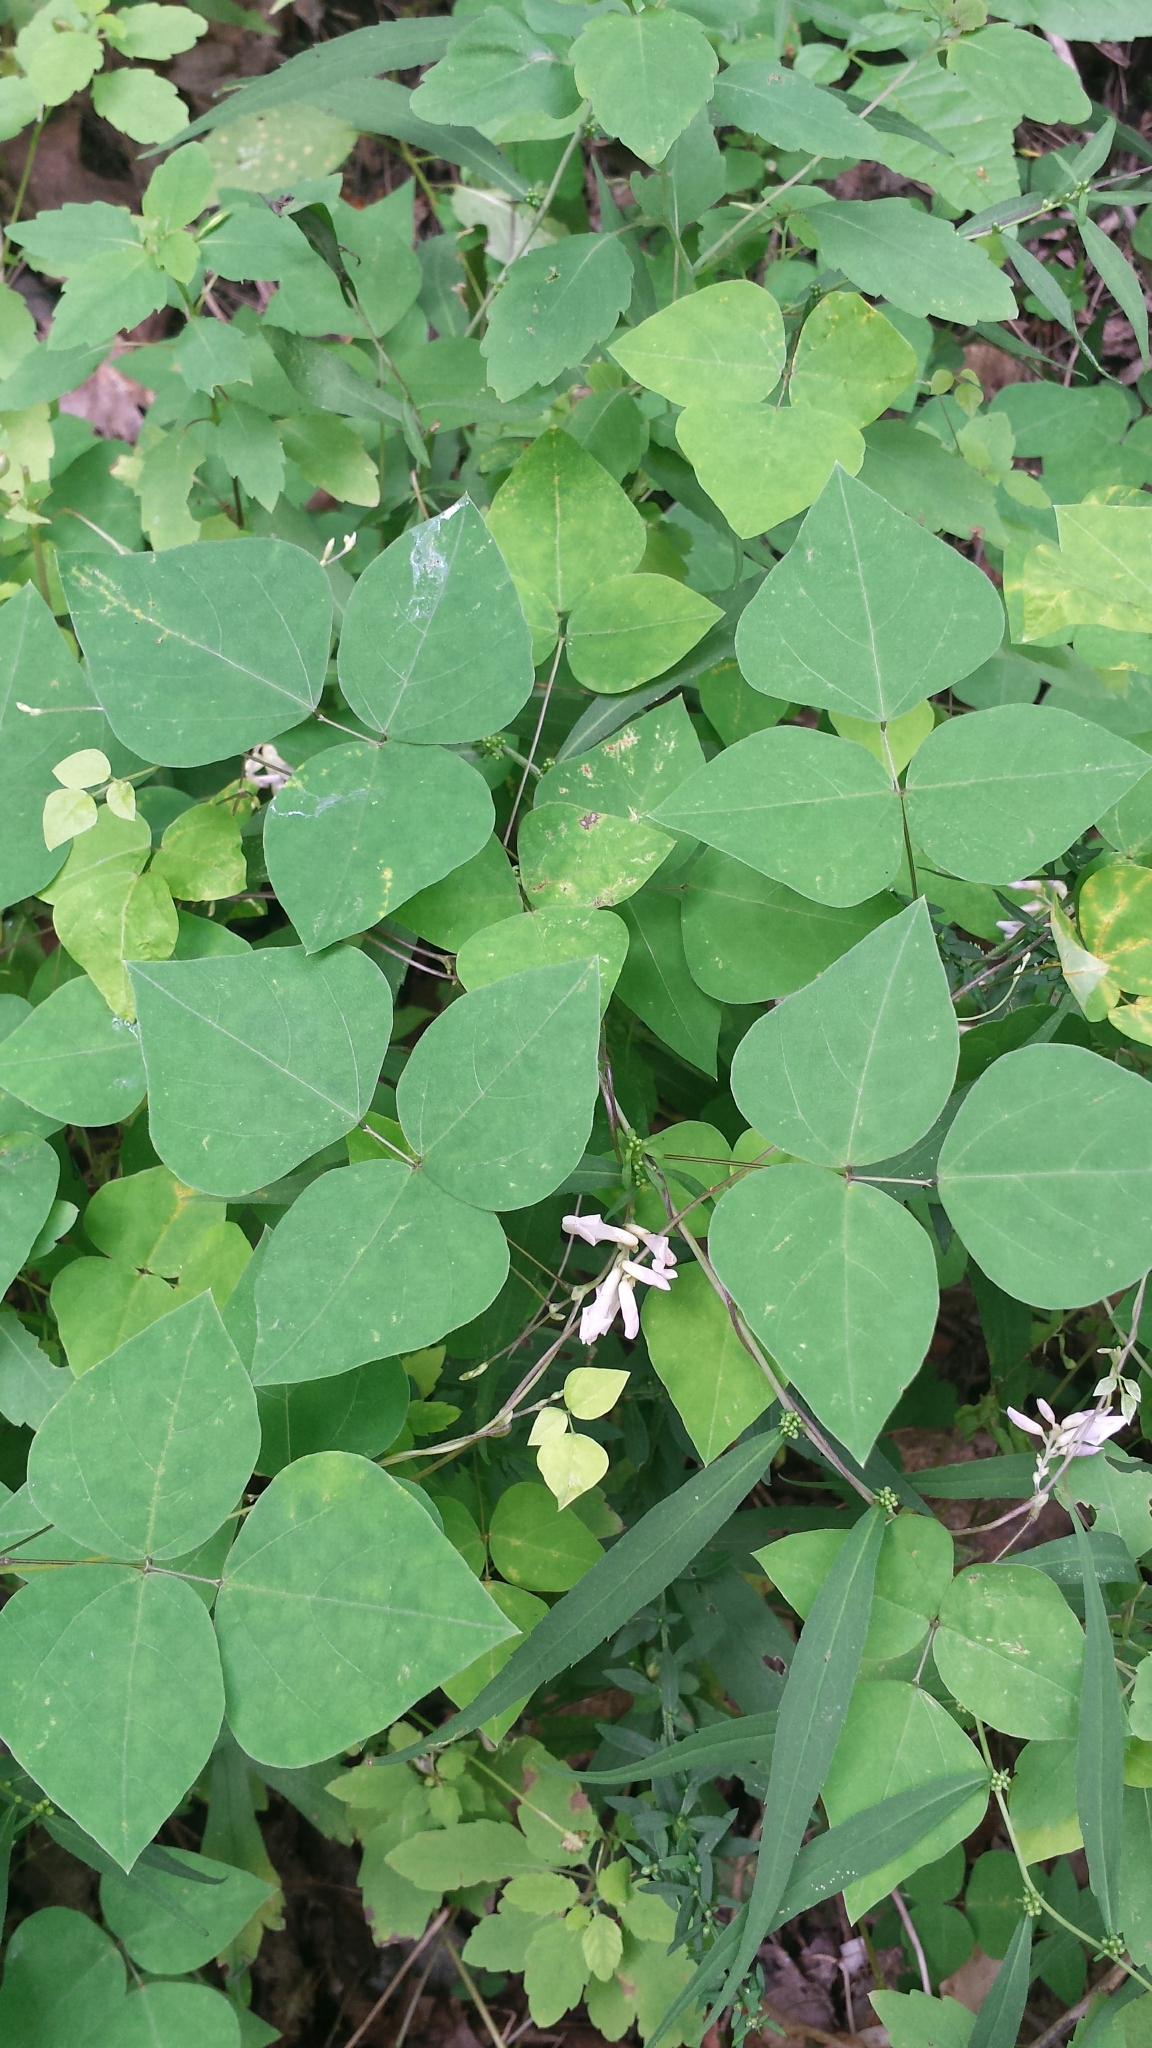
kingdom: Plantae
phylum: Tracheophyta
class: Magnoliopsida
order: Fabales
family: Fabaceae
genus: Amphicarpaea
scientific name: Amphicarpaea bracteata
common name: American hog peanut
